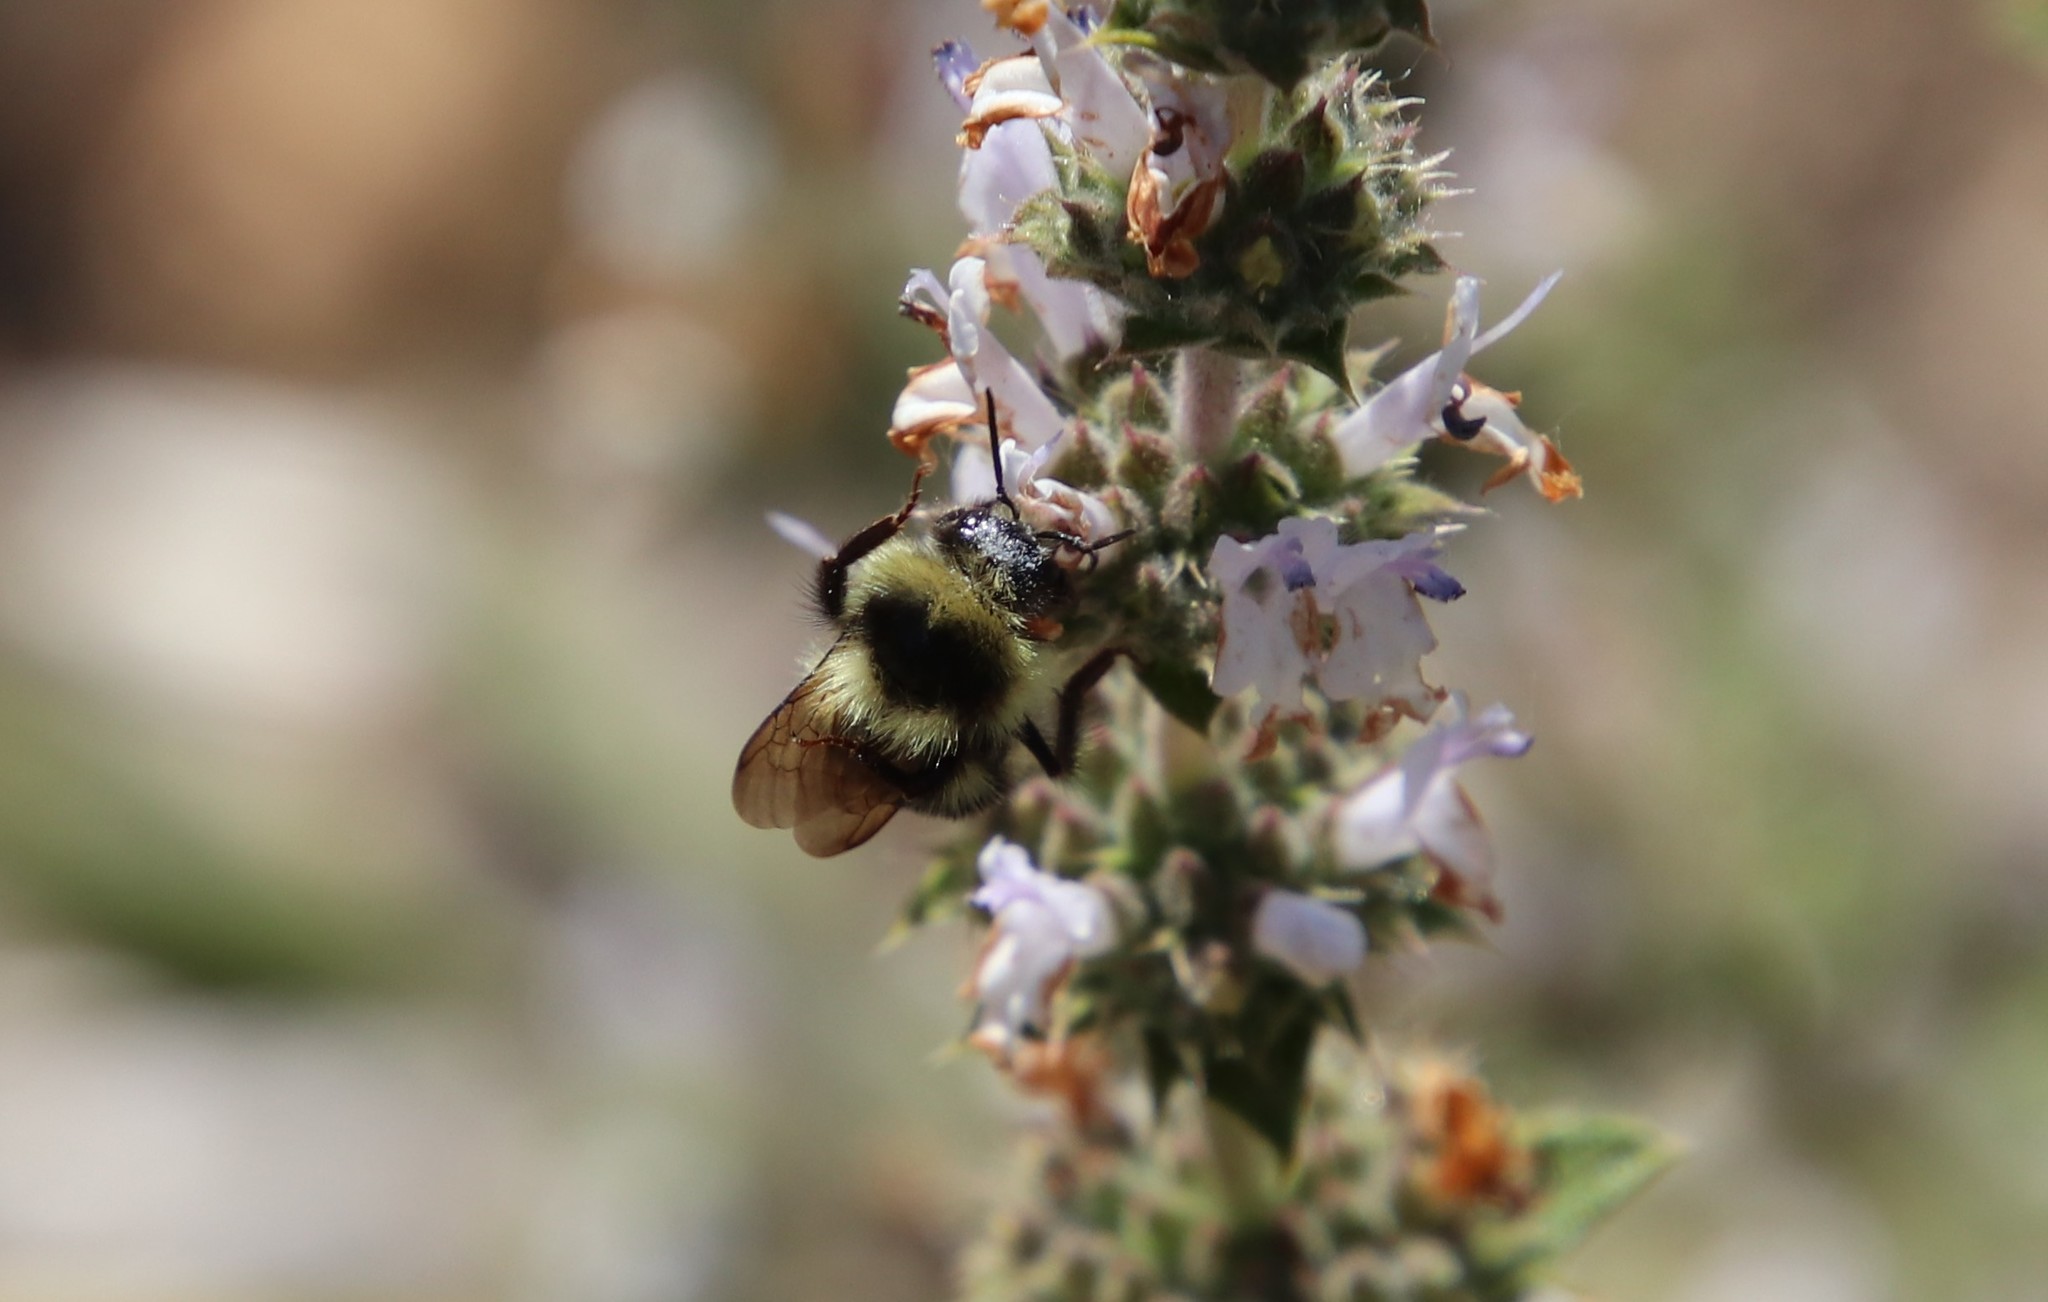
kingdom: Animalia
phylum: Arthropoda
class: Insecta
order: Hymenoptera
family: Apidae
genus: Bombus
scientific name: Bombus melanopygus
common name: Black tail bumble bee
